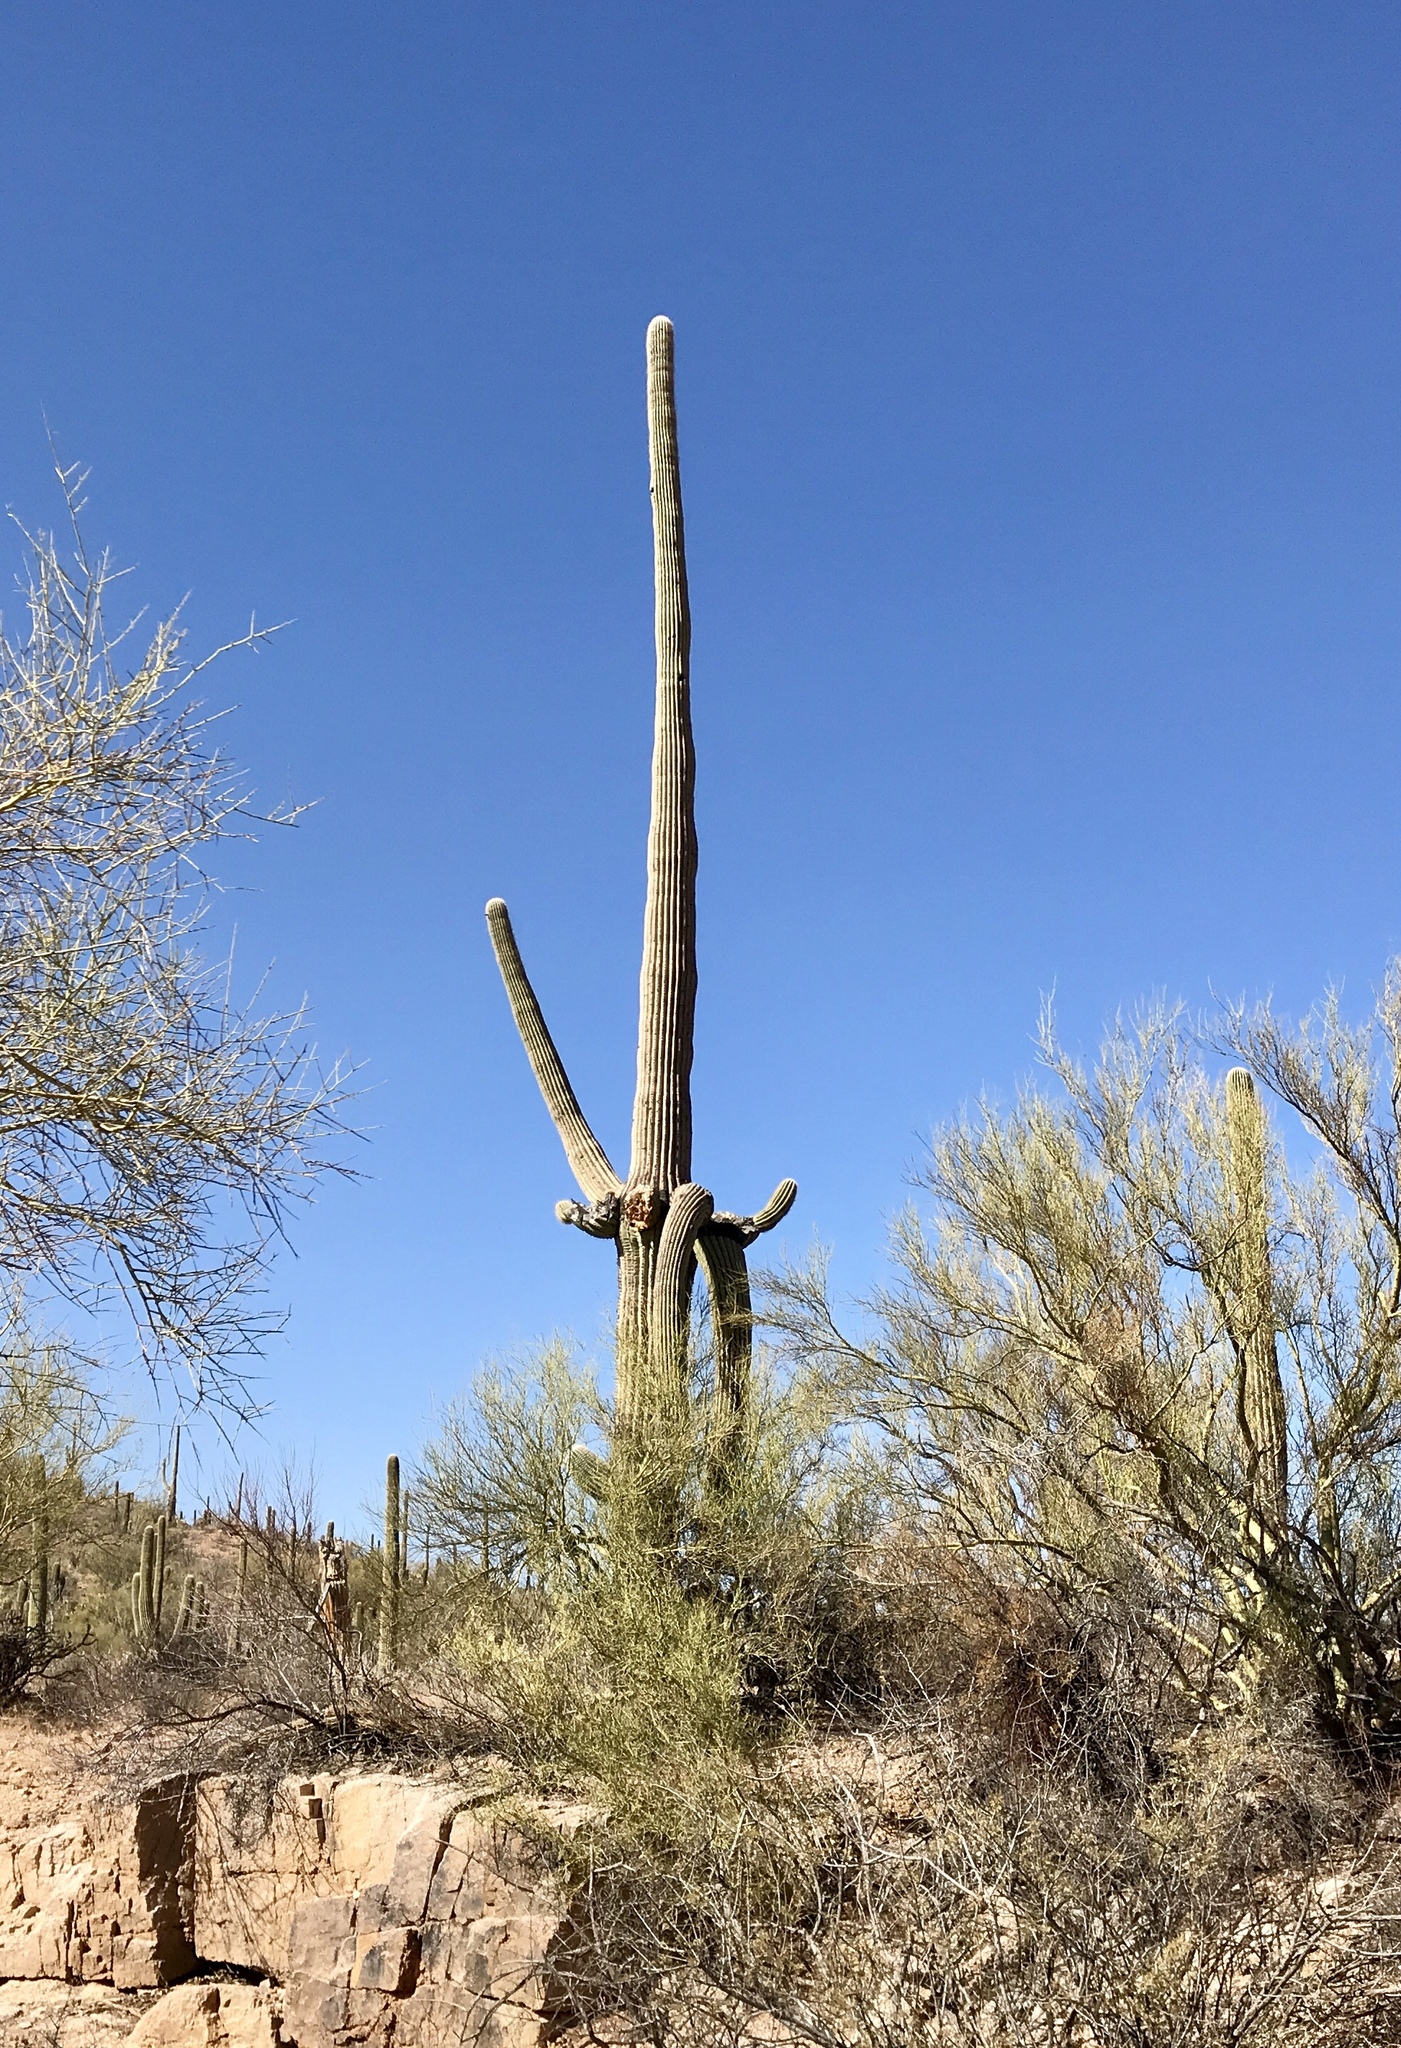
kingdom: Plantae
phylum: Tracheophyta
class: Magnoliopsida
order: Caryophyllales
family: Cactaceae
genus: Carnegiea
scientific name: Carnegiea gigantea
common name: Saguaro
